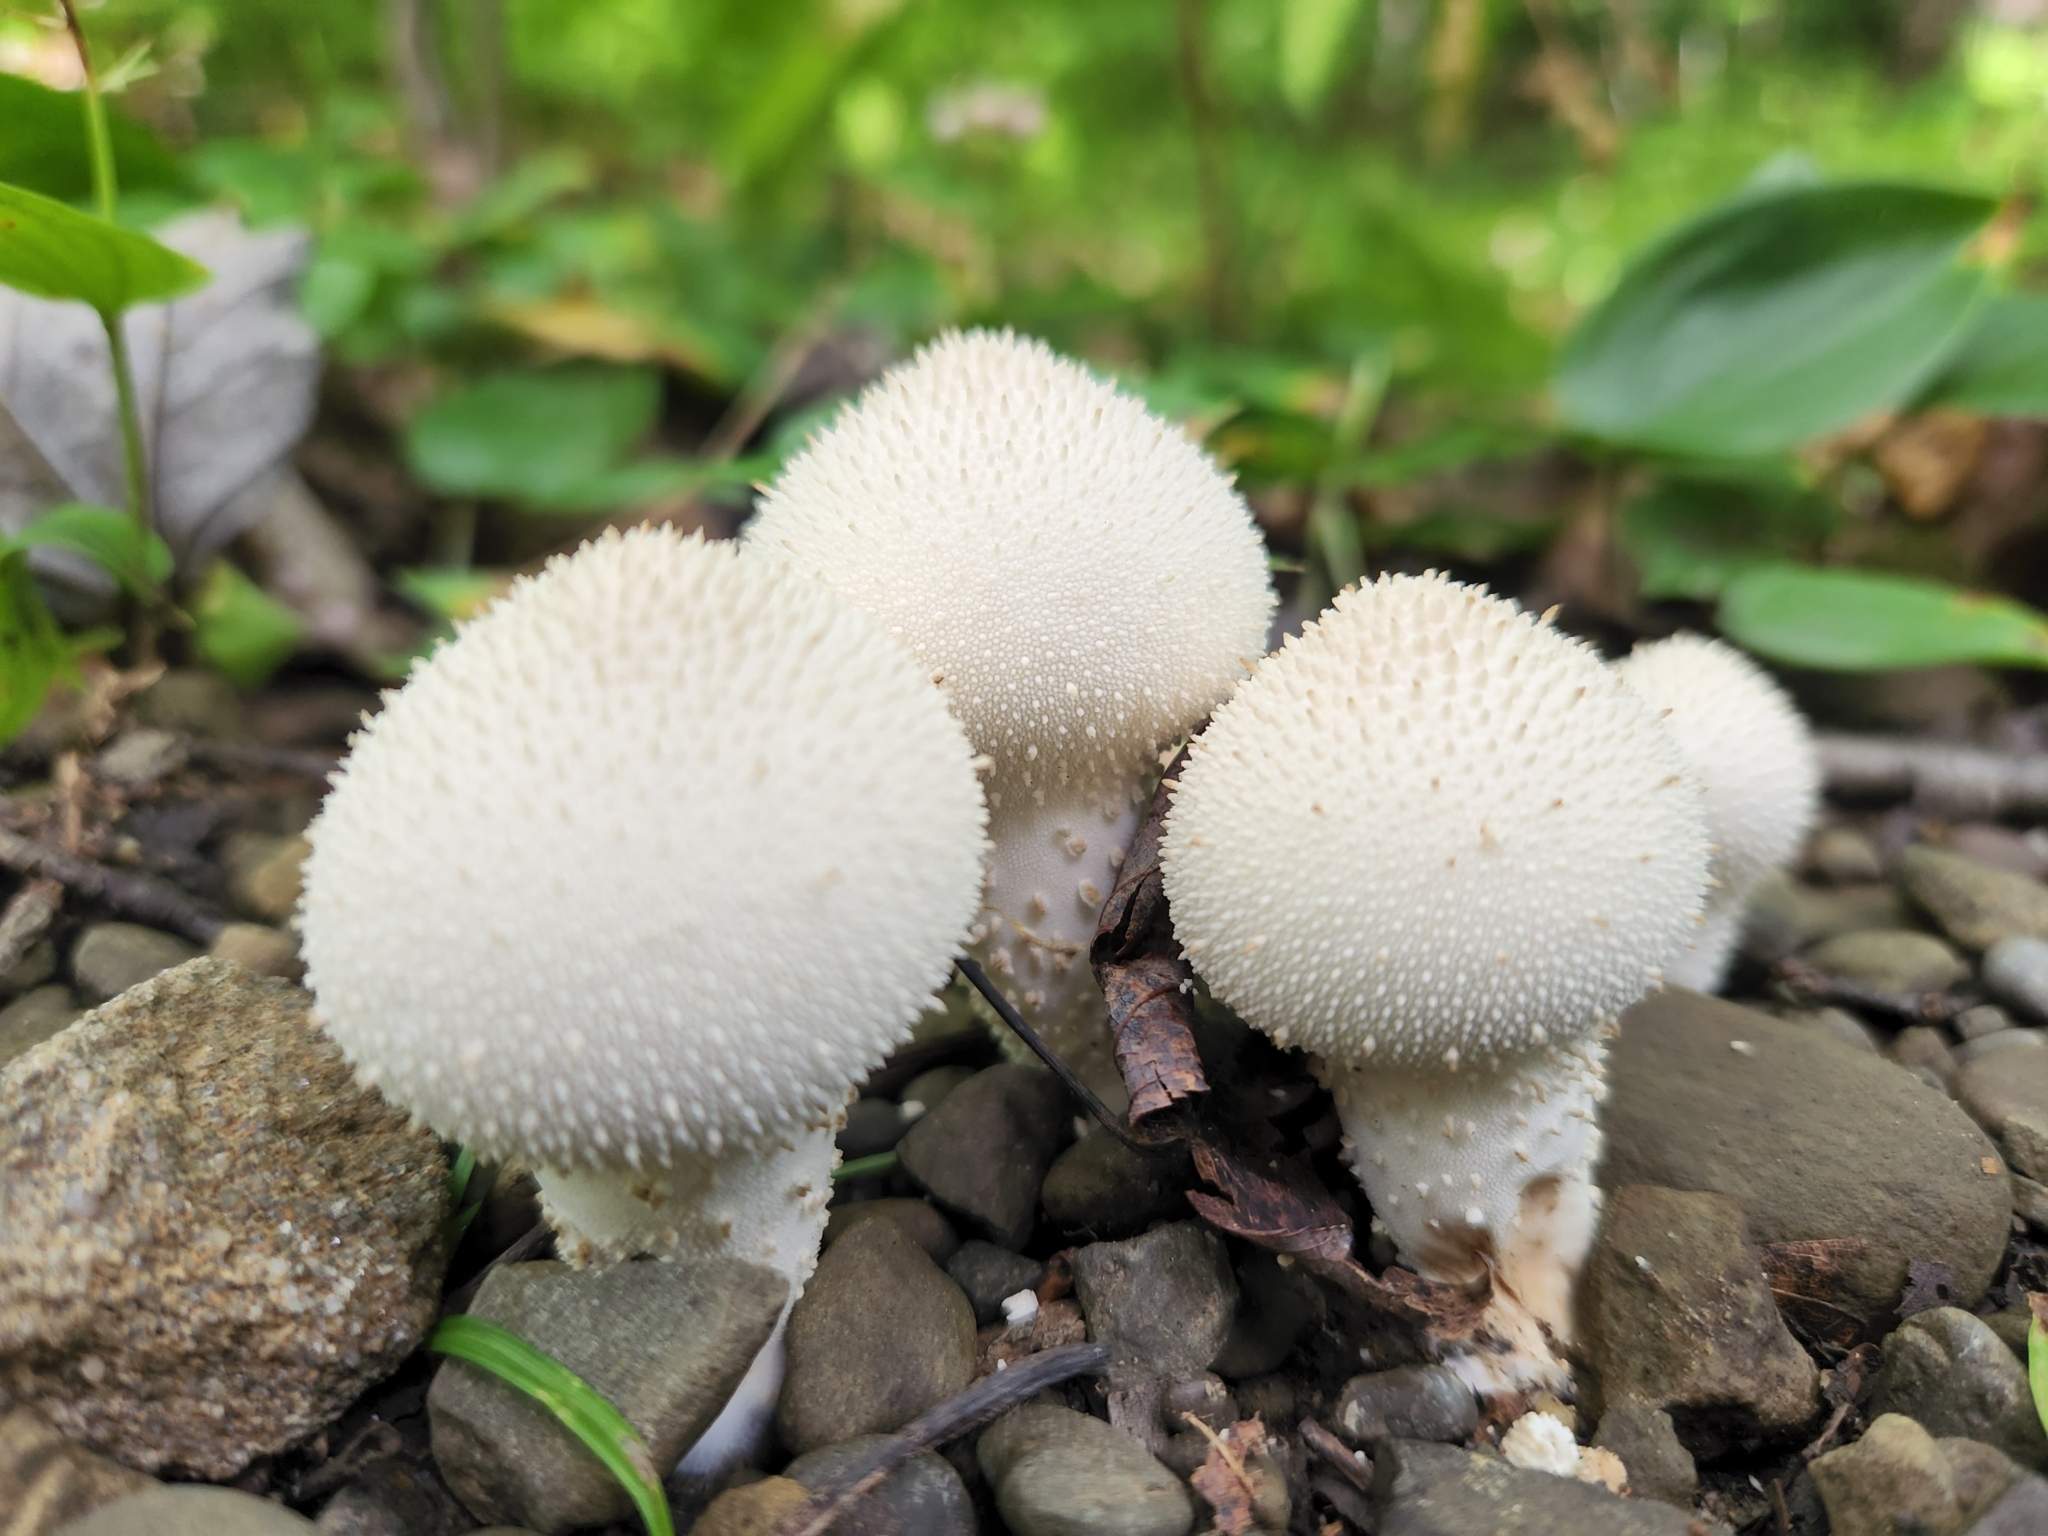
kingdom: Fungi
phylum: Basidiomycota
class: Agaricomycetes
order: Agaricales
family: Lycoperdaceae
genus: Lycoperdon
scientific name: Lycoperdon perlatum
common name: Common puffball
